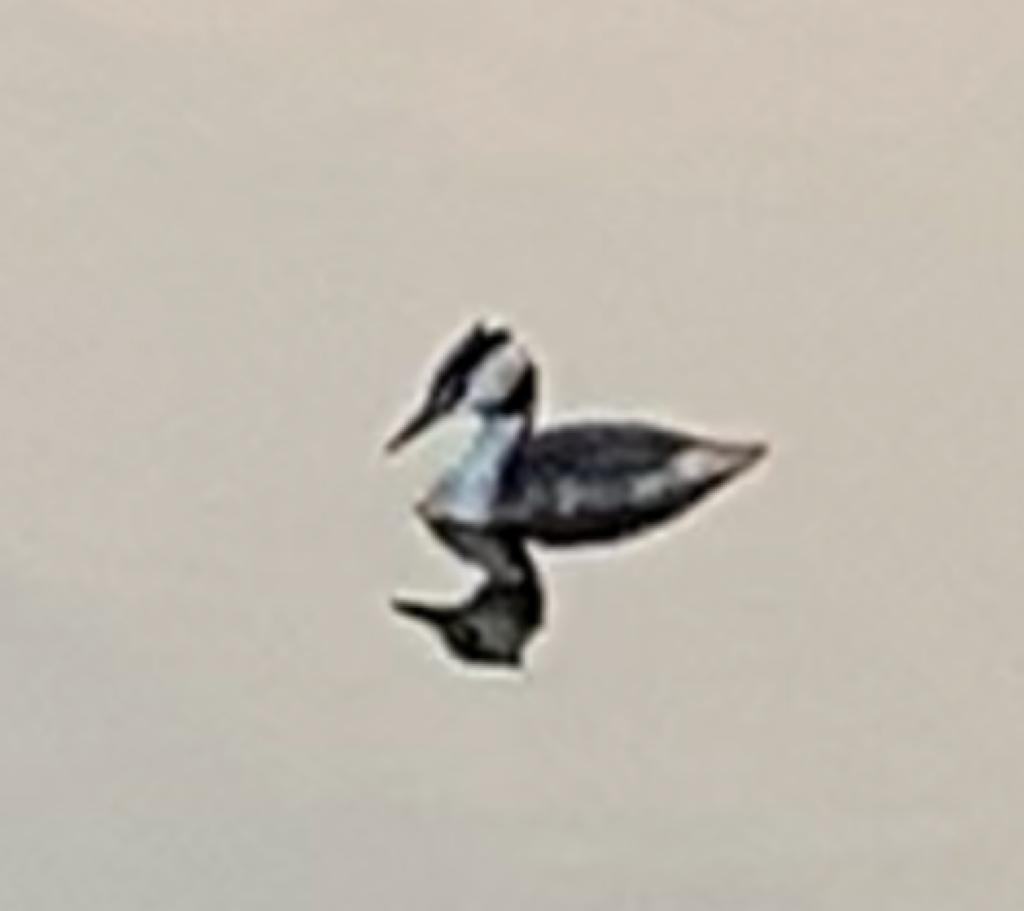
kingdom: Animalia
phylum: Chordata
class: Aves
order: Podicipediformes
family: Podicipedidae
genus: Podiceps
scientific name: Podiceps cristatus
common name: Great crested grebe
